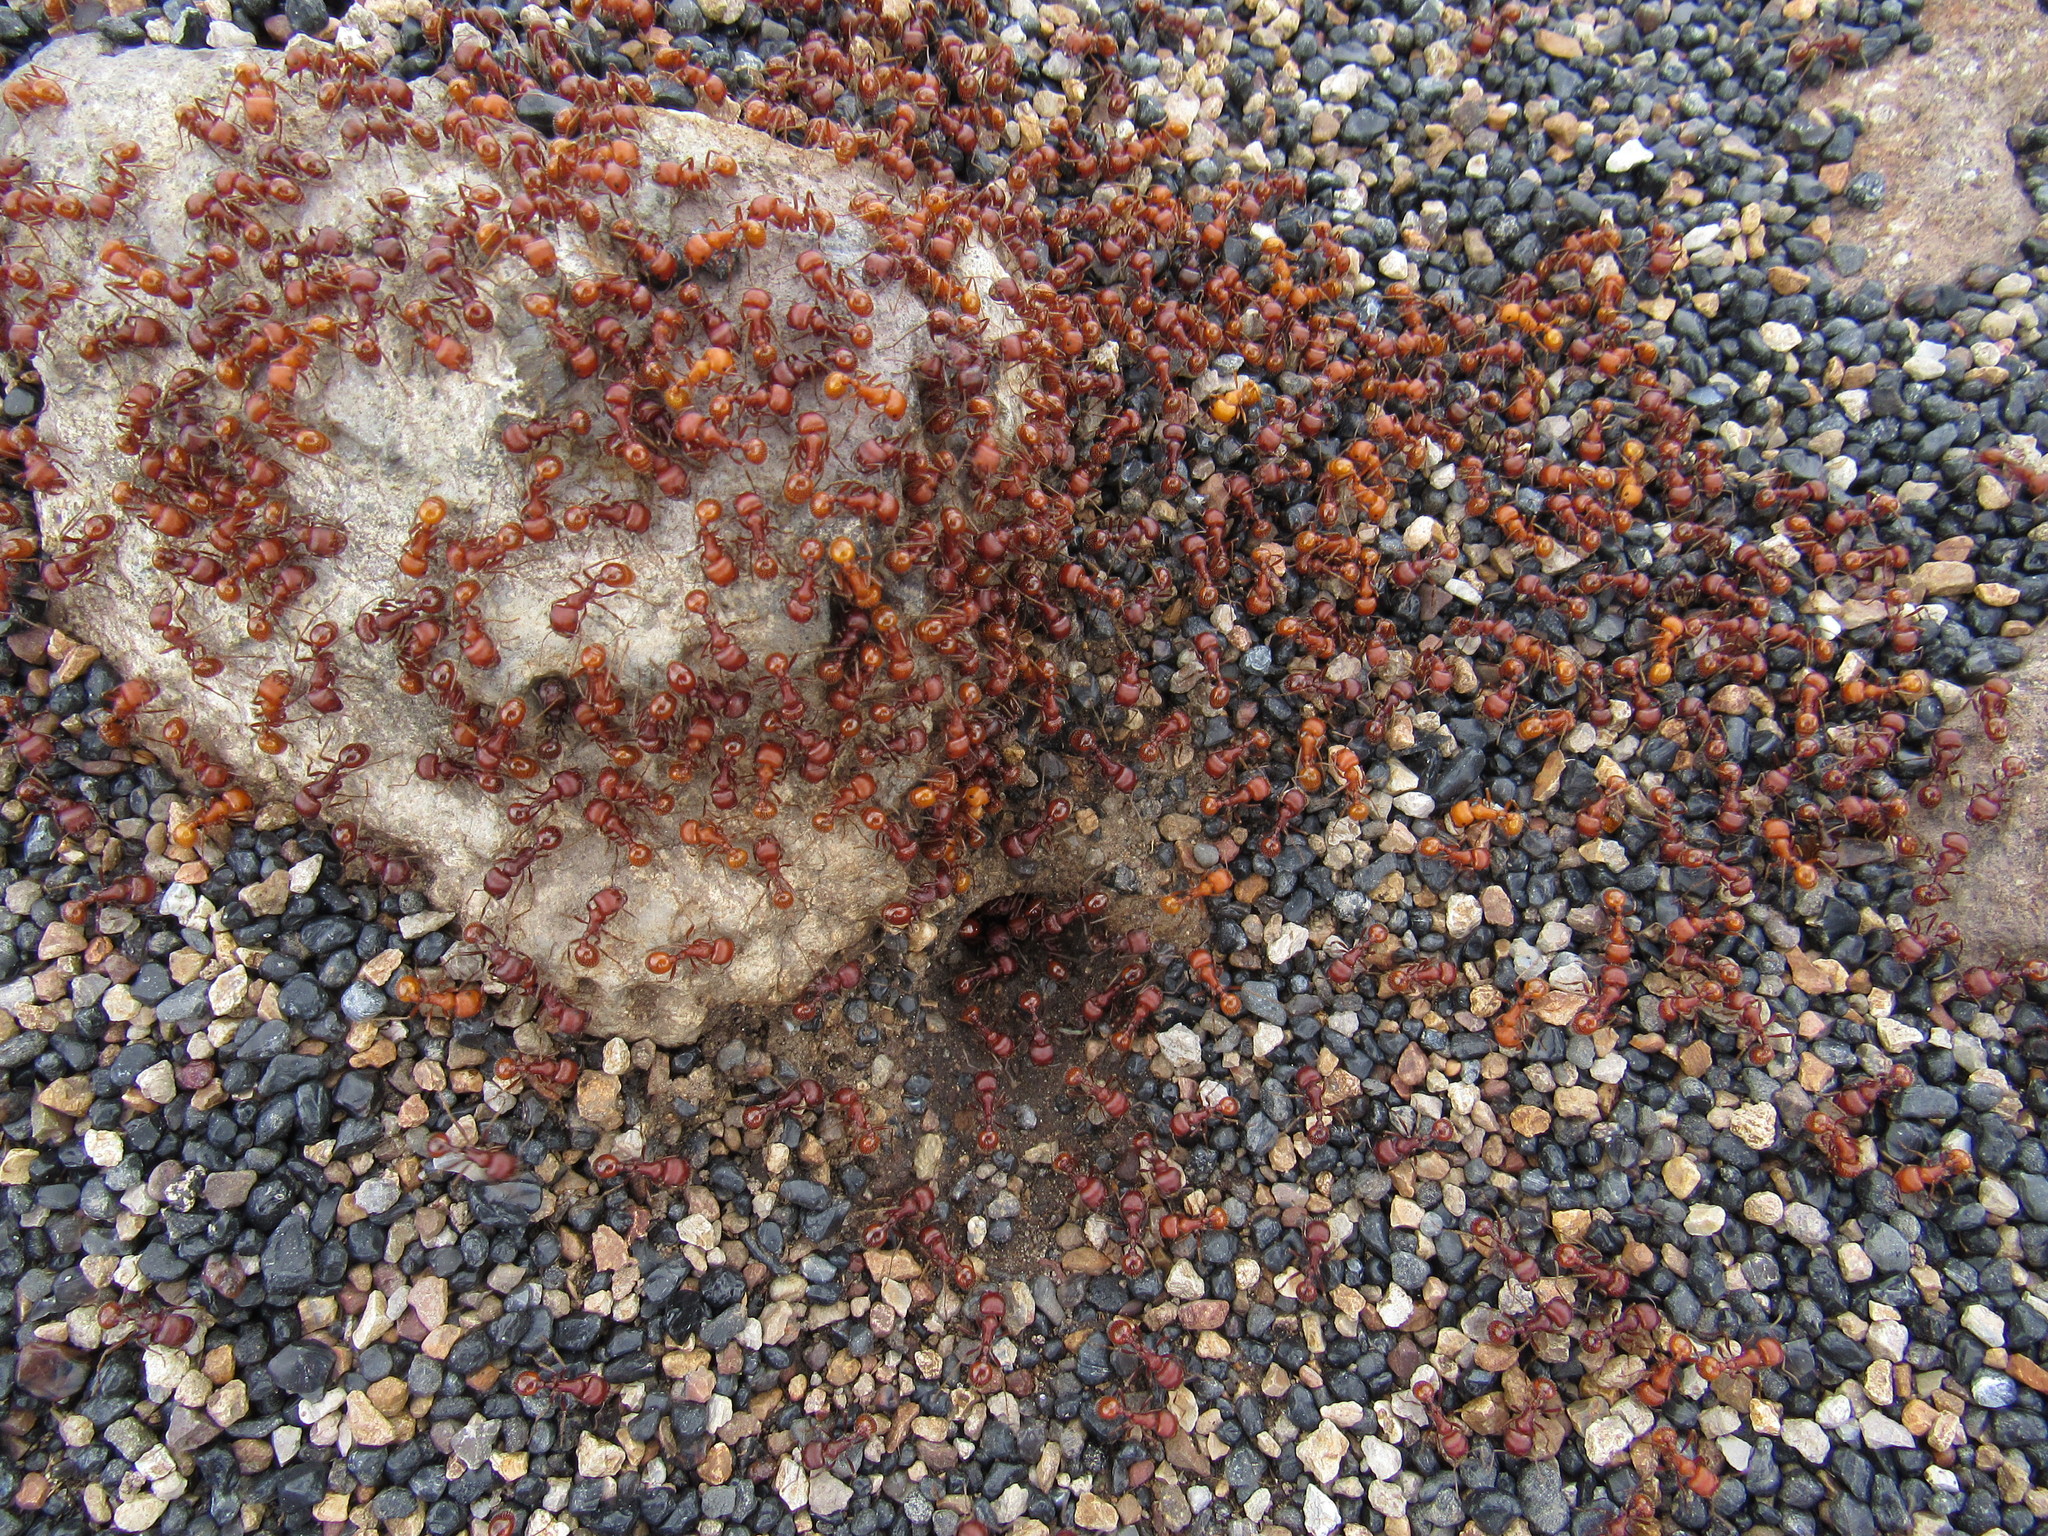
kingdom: Animalia
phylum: Arthropoda
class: Insecta
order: Hymenoptera
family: Formicidae
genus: Pogonomyrmex
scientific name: Pogonomyrmex barbatus
